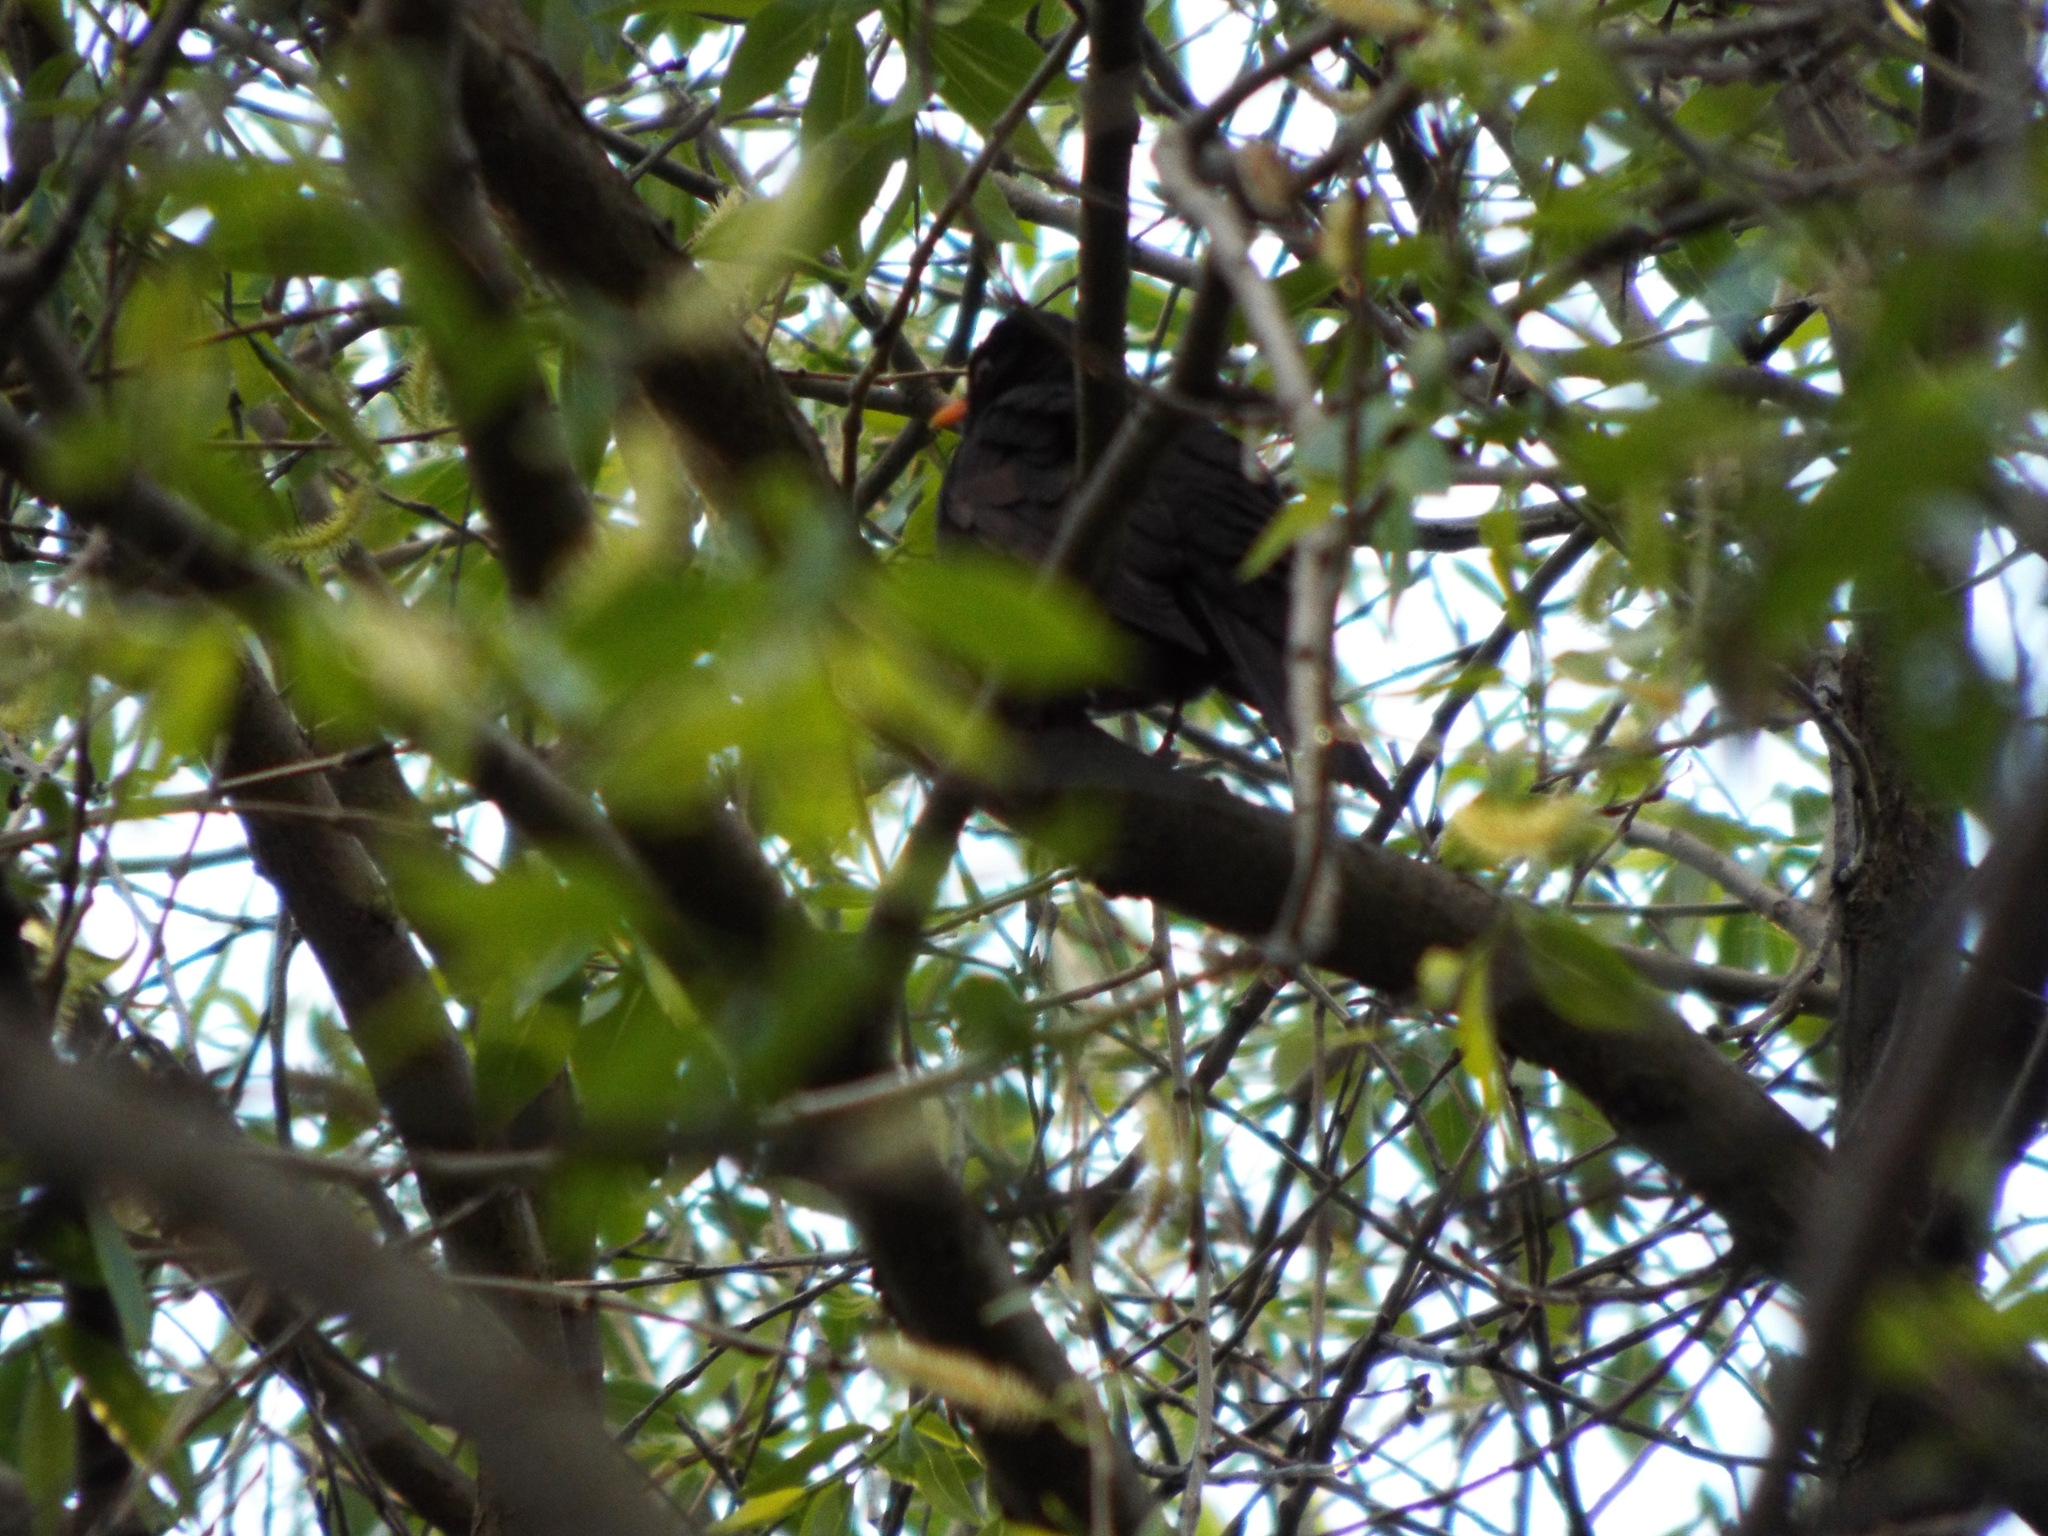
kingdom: Animalia
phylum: Chordata
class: Aves
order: Passeriformes
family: Turdidae
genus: Turdus
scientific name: Turdus merula
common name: Common blackbird
